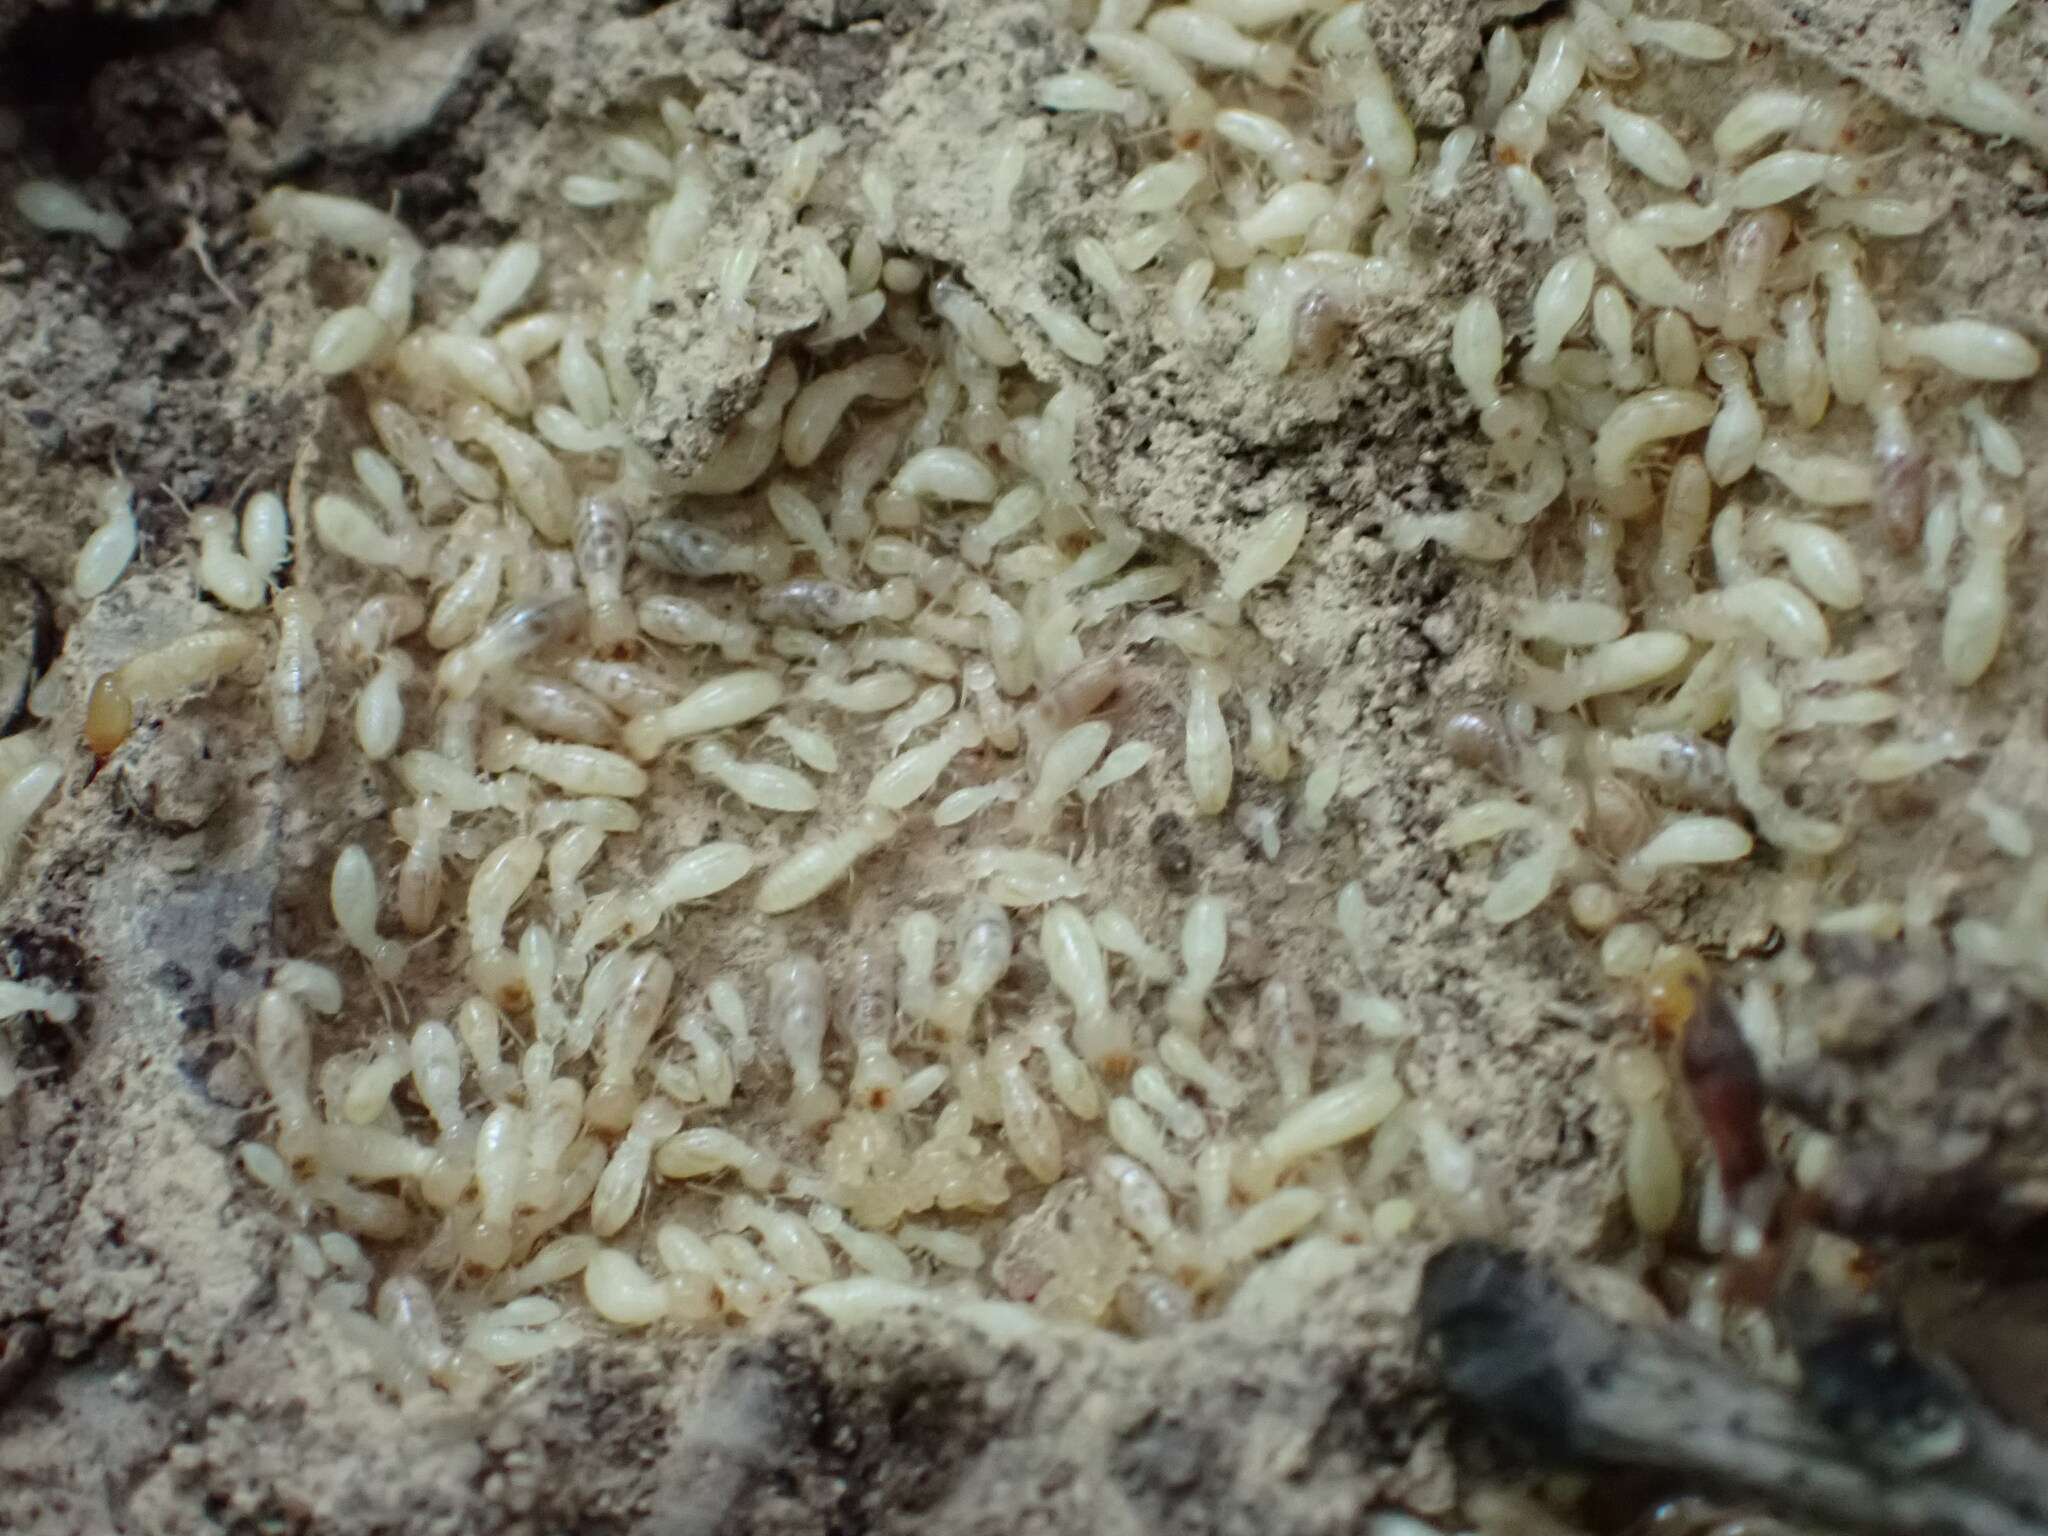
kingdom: Animalia
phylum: Arthropoda
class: Insecta
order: Blattodea
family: Rhinotermitidae
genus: Reticulitermes
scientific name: Reticulitermes flavipes
